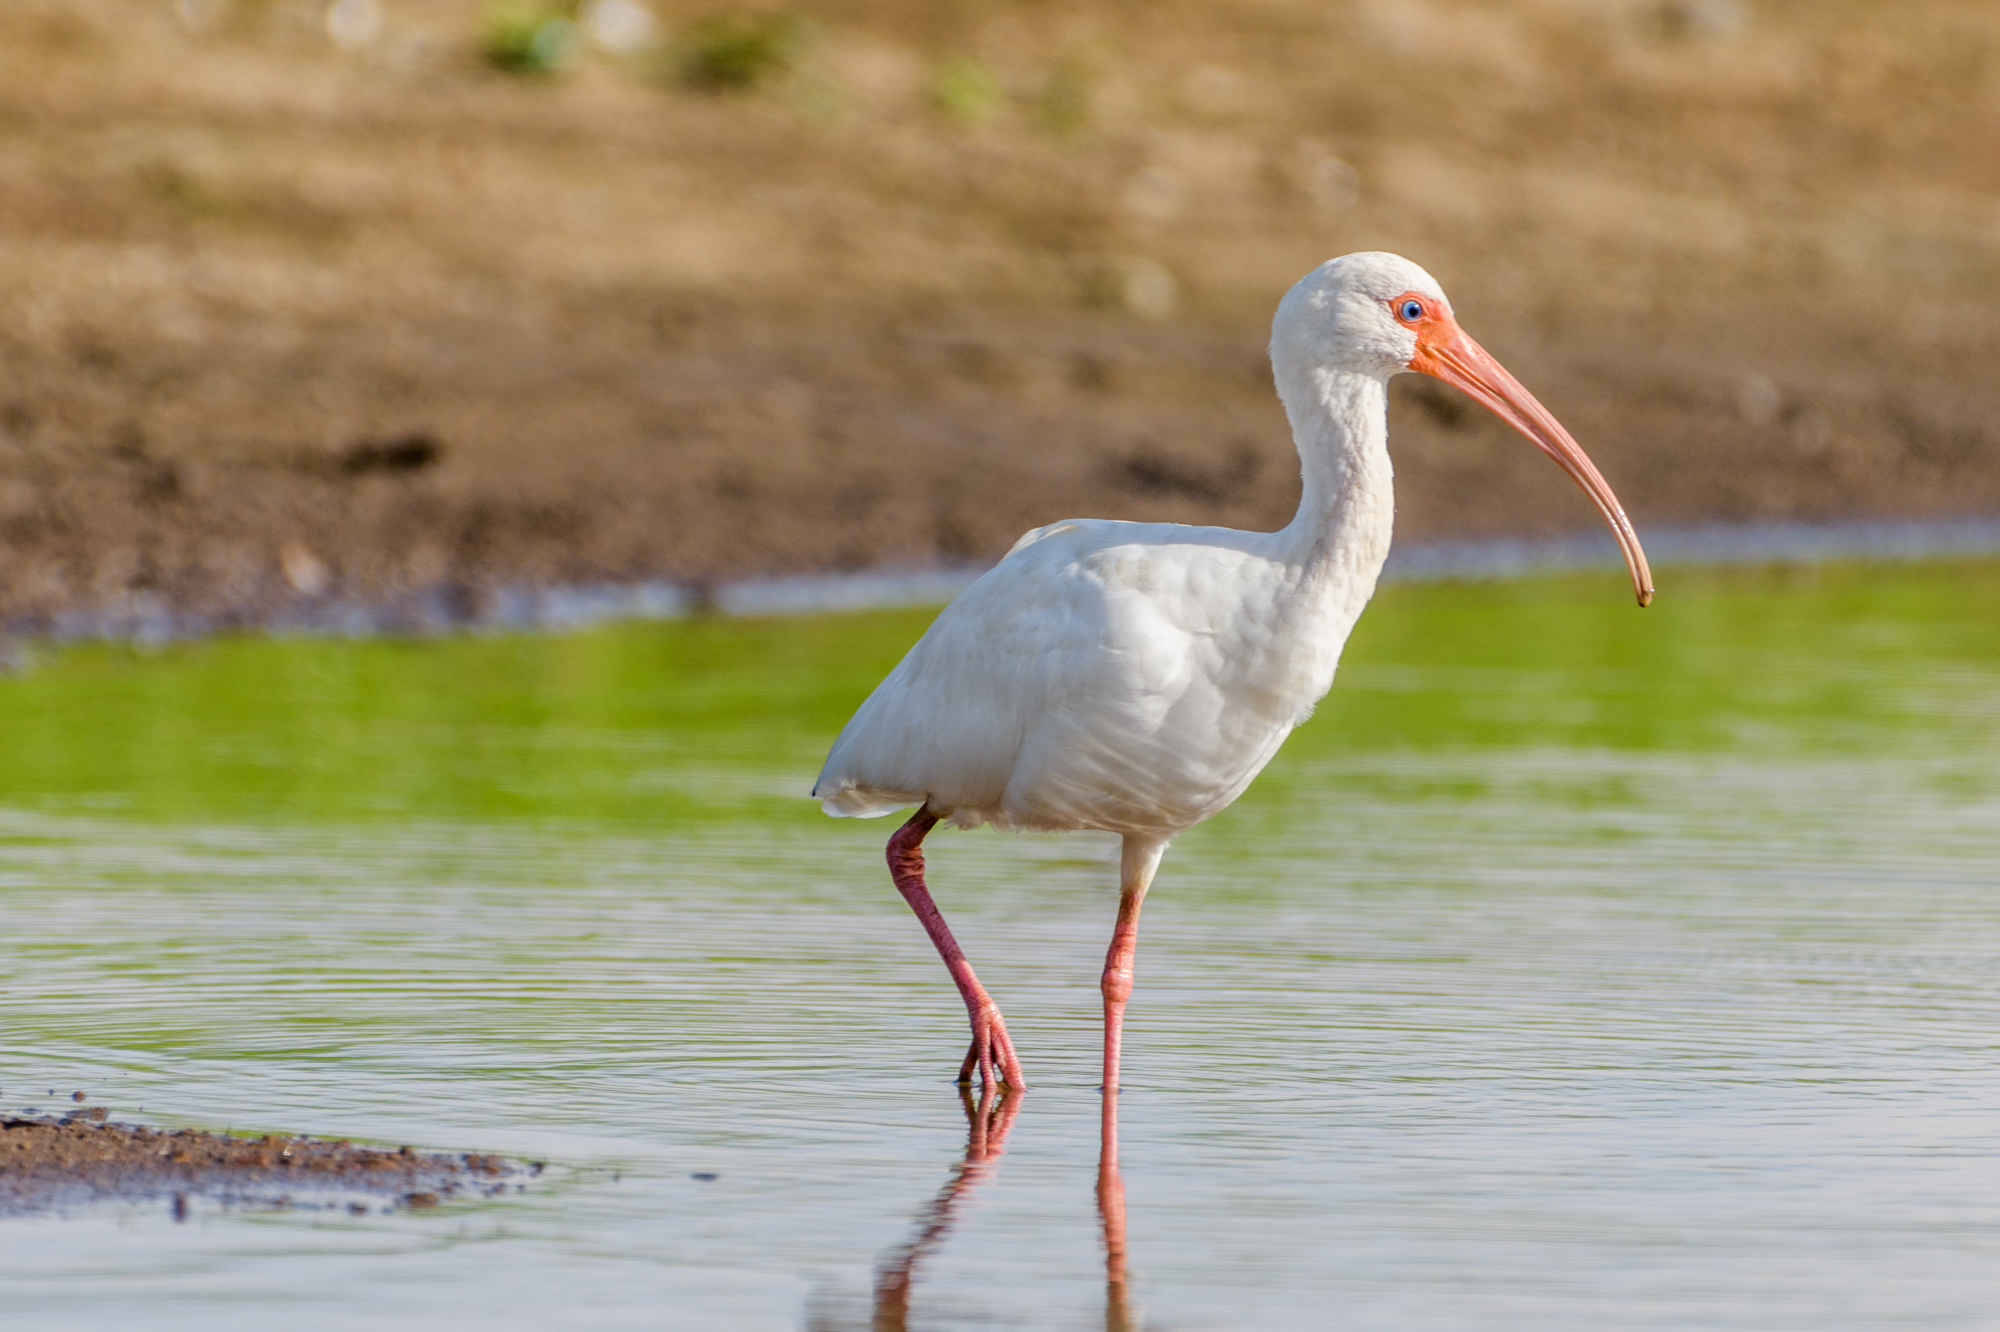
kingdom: Animalia
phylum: Chordata
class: Aves
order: Pelecaniformes
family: Threskiornithidae
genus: Eudocimus
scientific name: Eudocimus albus
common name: White ibis
